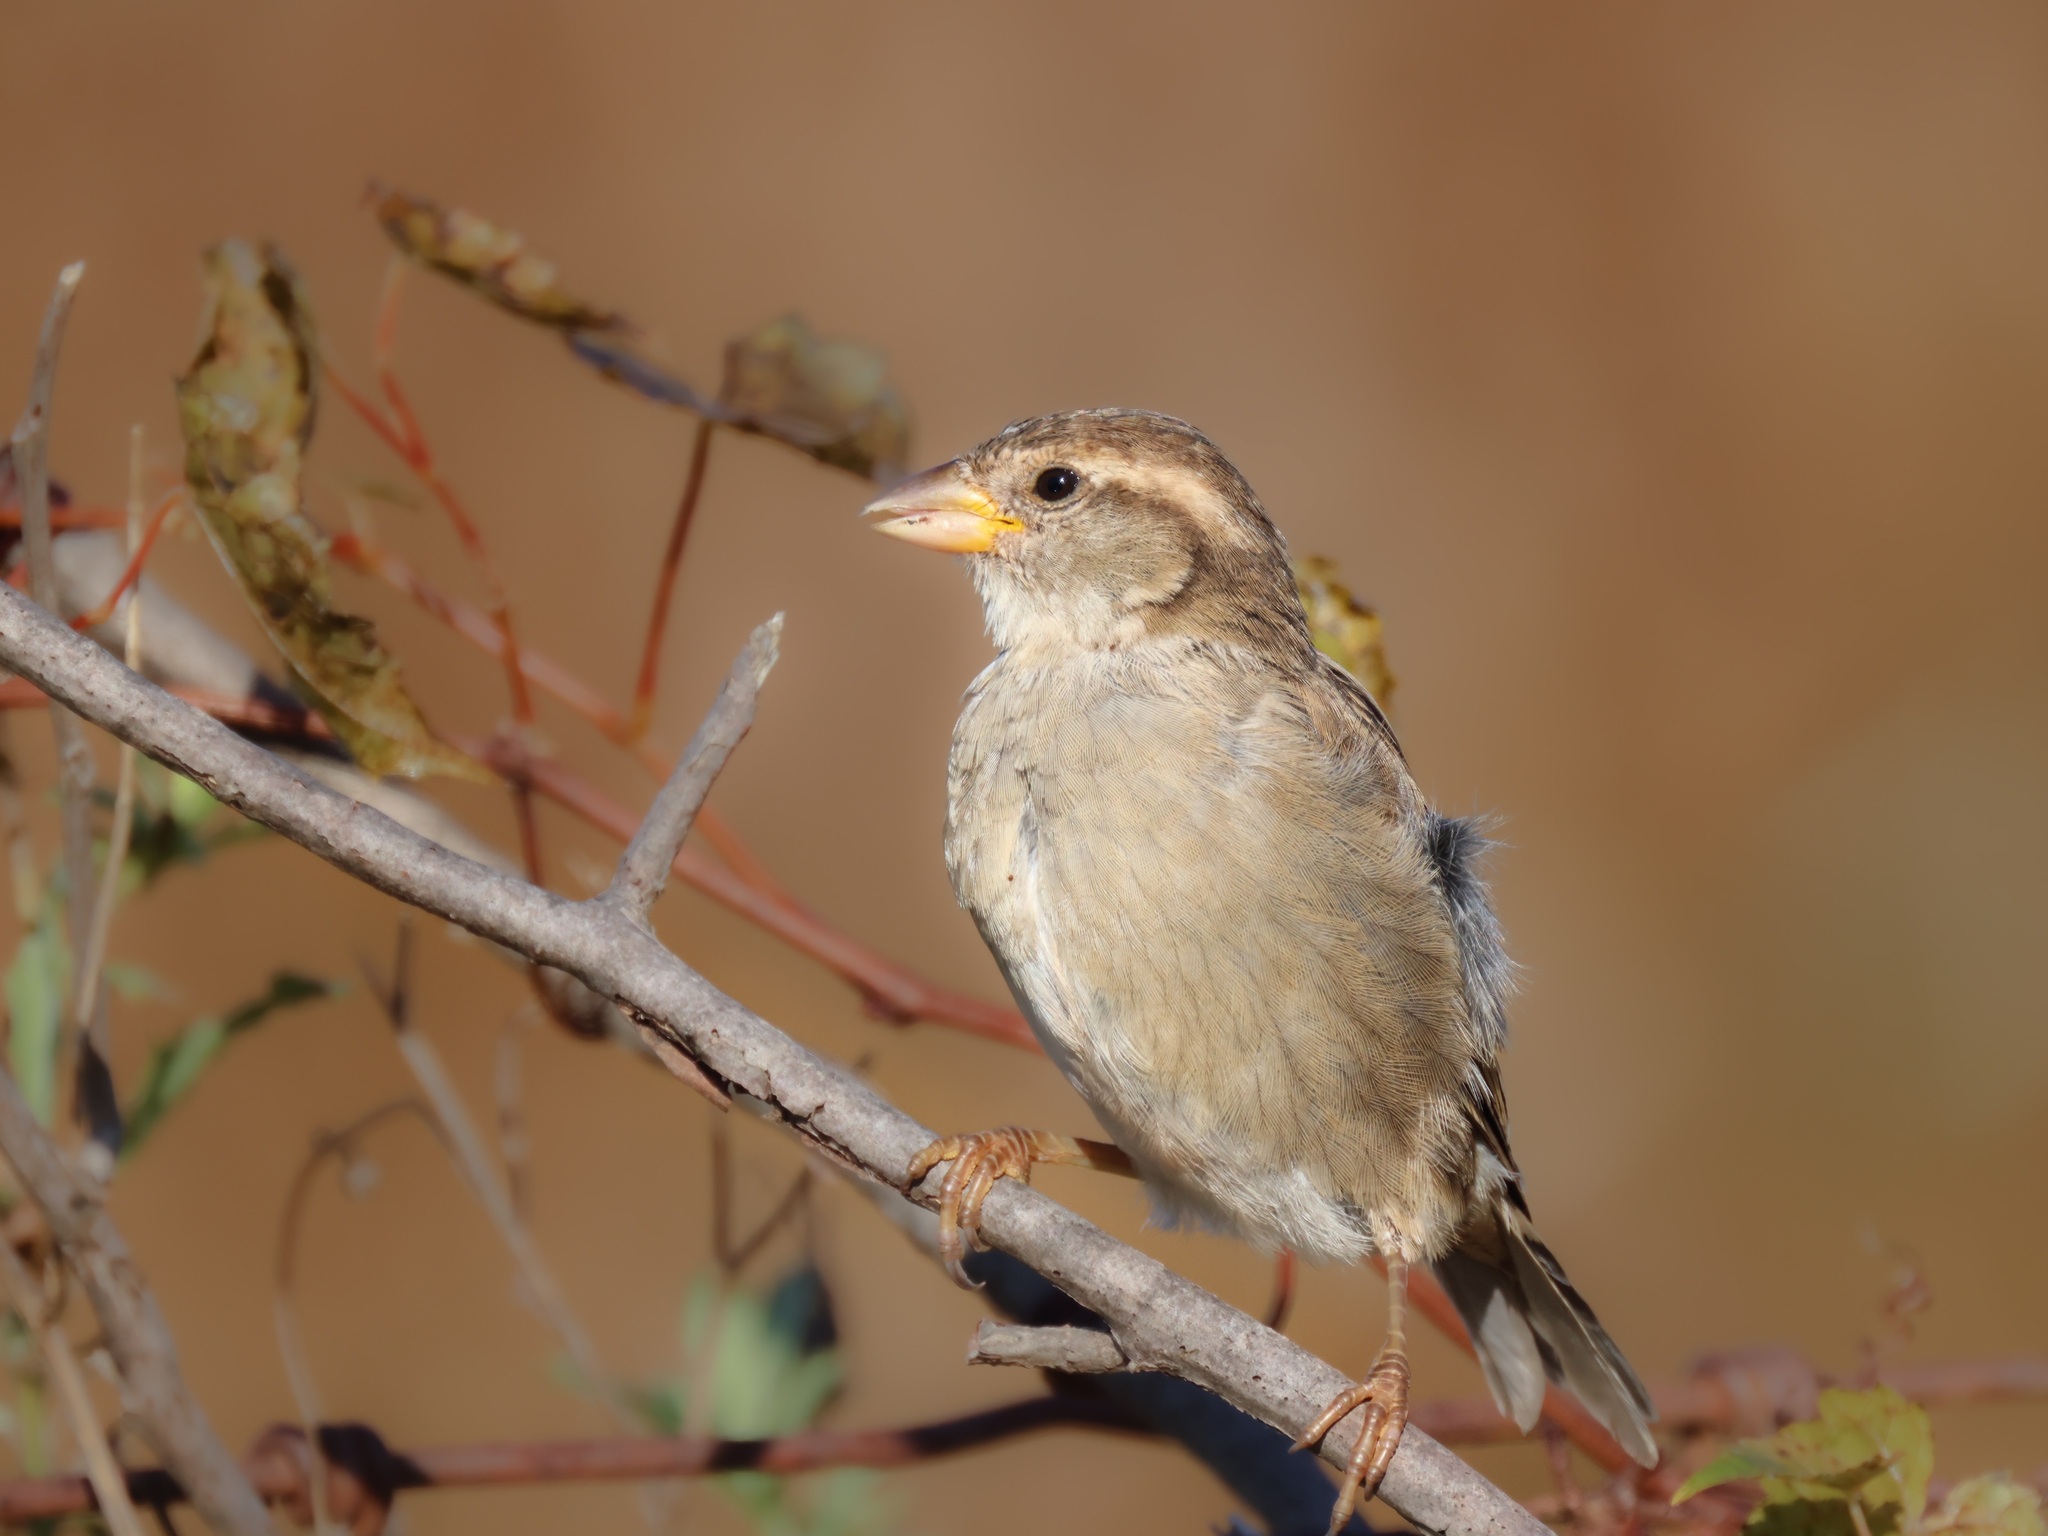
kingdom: Animalia
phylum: Chordata
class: Aves
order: Passeriformes
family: Passeridae
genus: Passer
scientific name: Passer domesticus
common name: House sparrow
